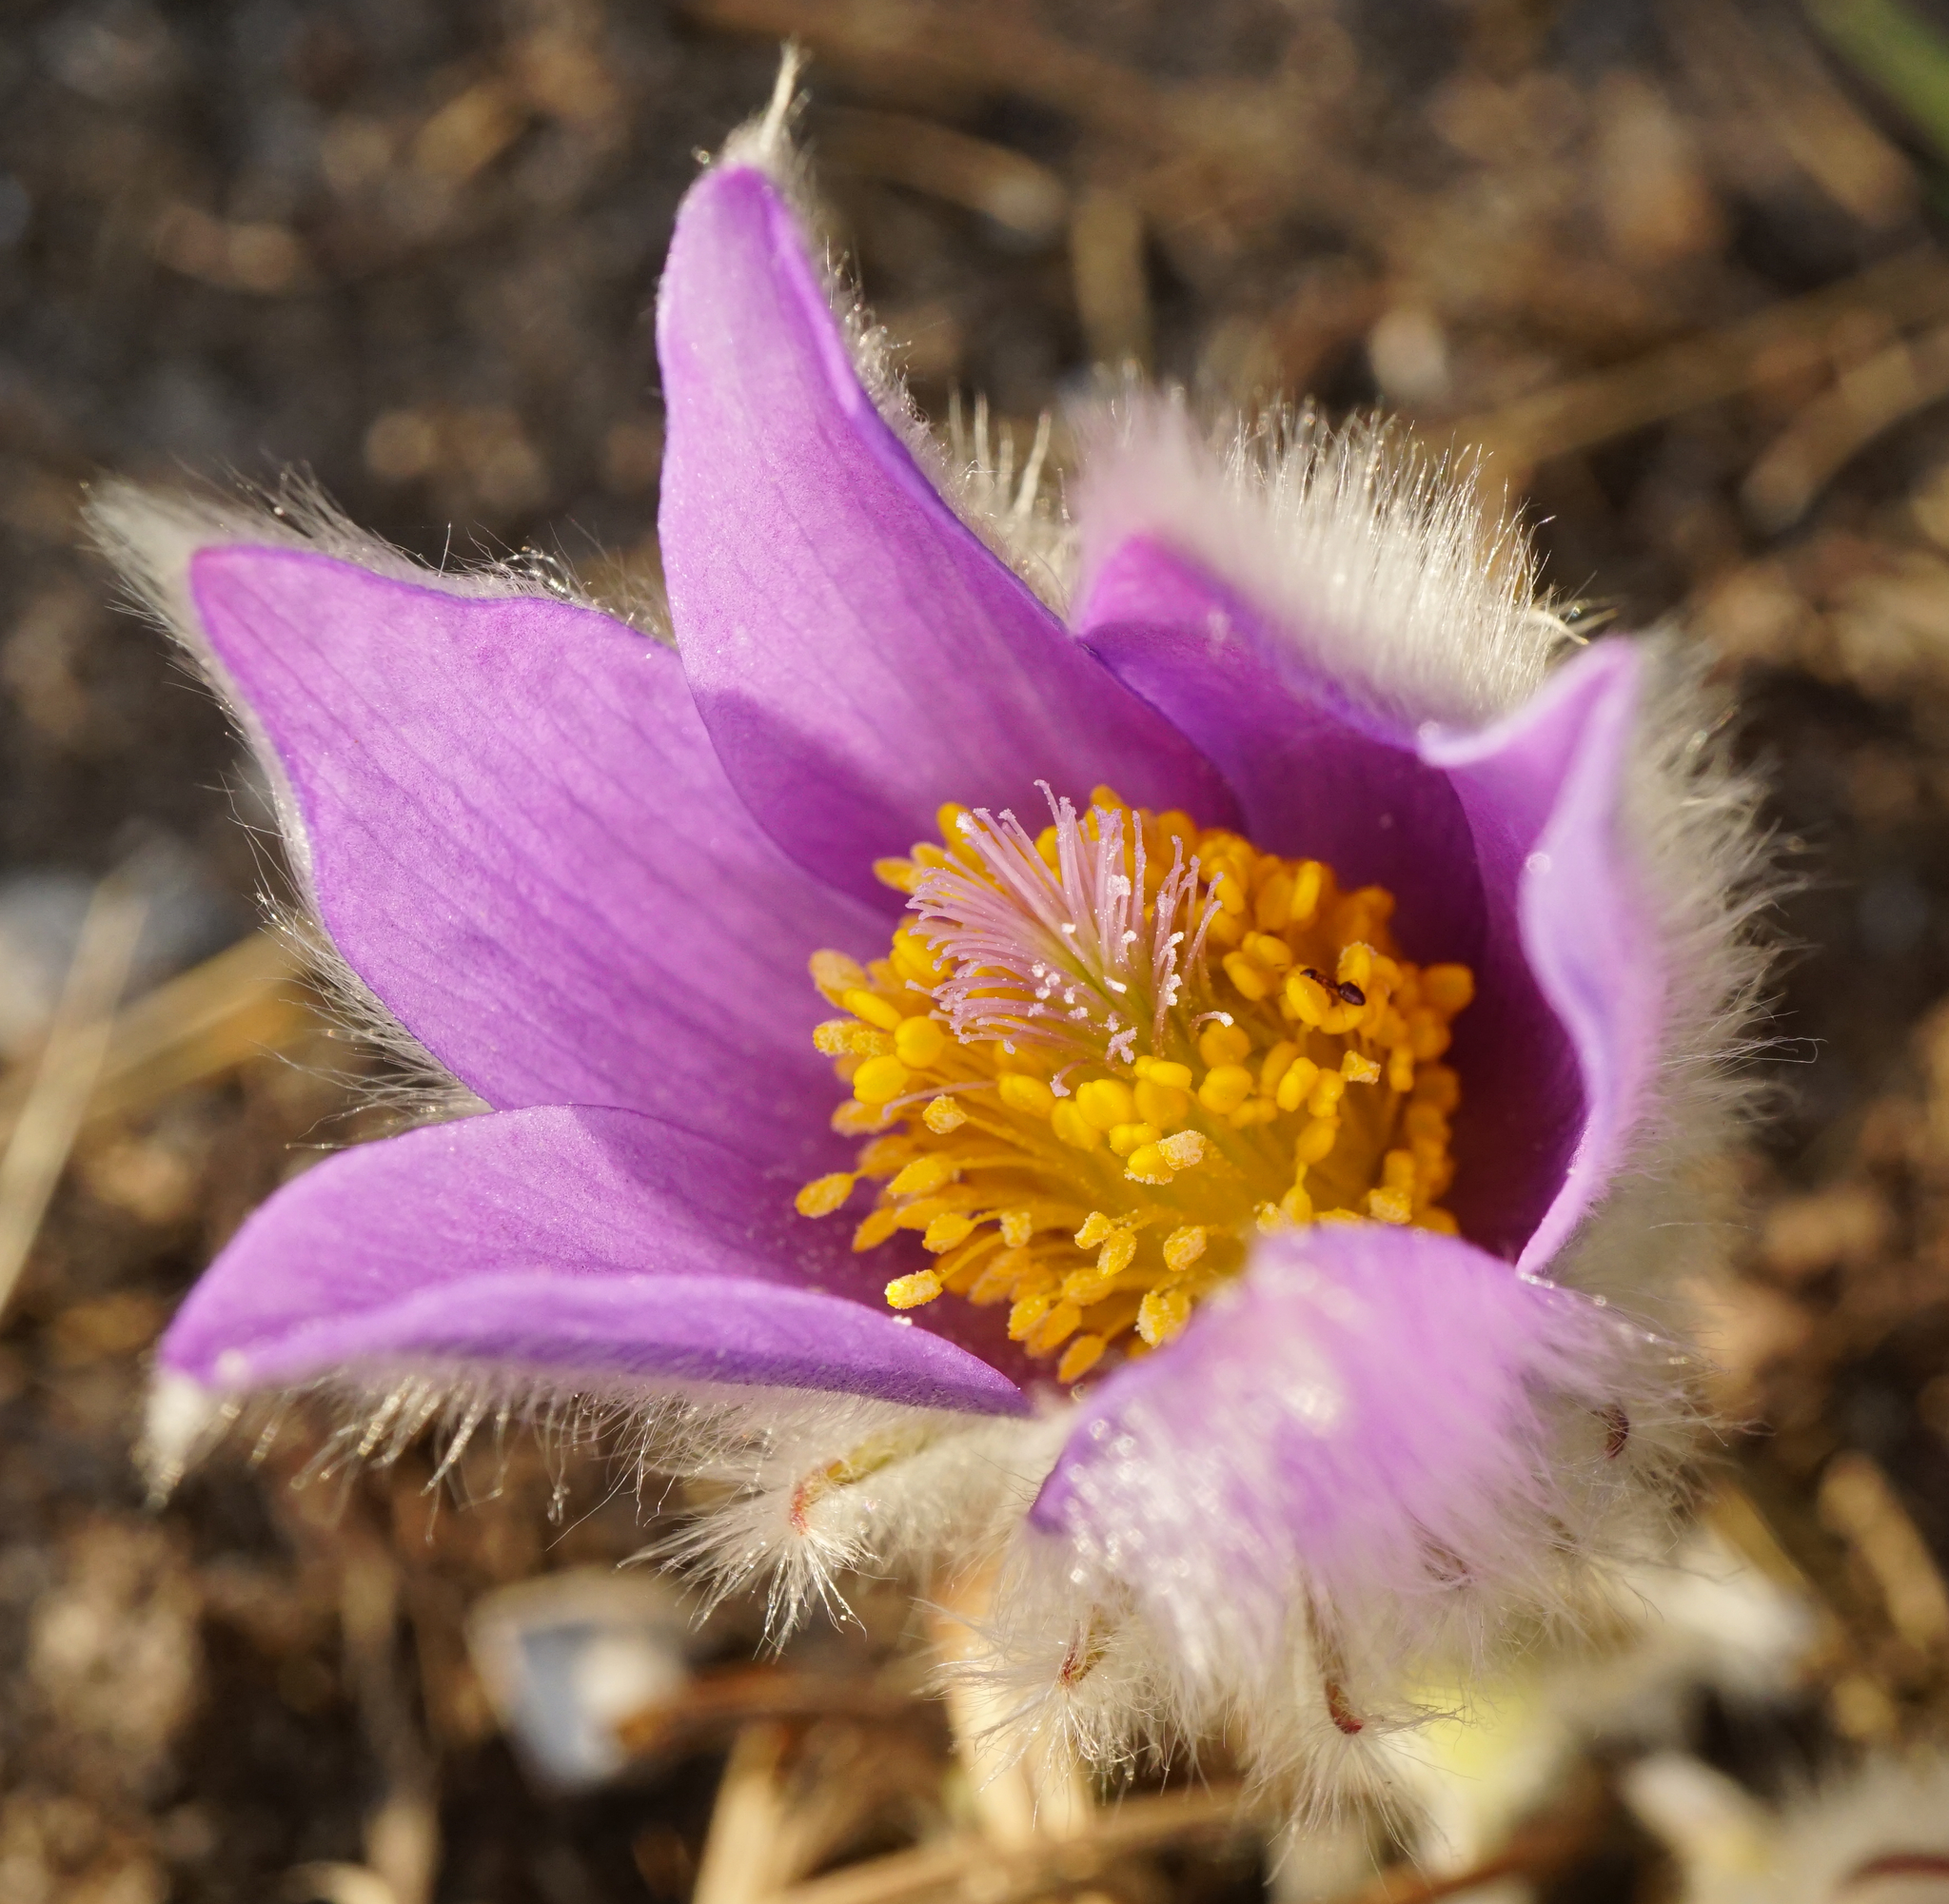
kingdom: Plantae
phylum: Tracheophyta
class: Magnoliopsida
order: Ranunculales
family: Ranunculaceae
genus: Pulsatilla
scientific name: Pulsatilla grandis
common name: Greater pasque flower
